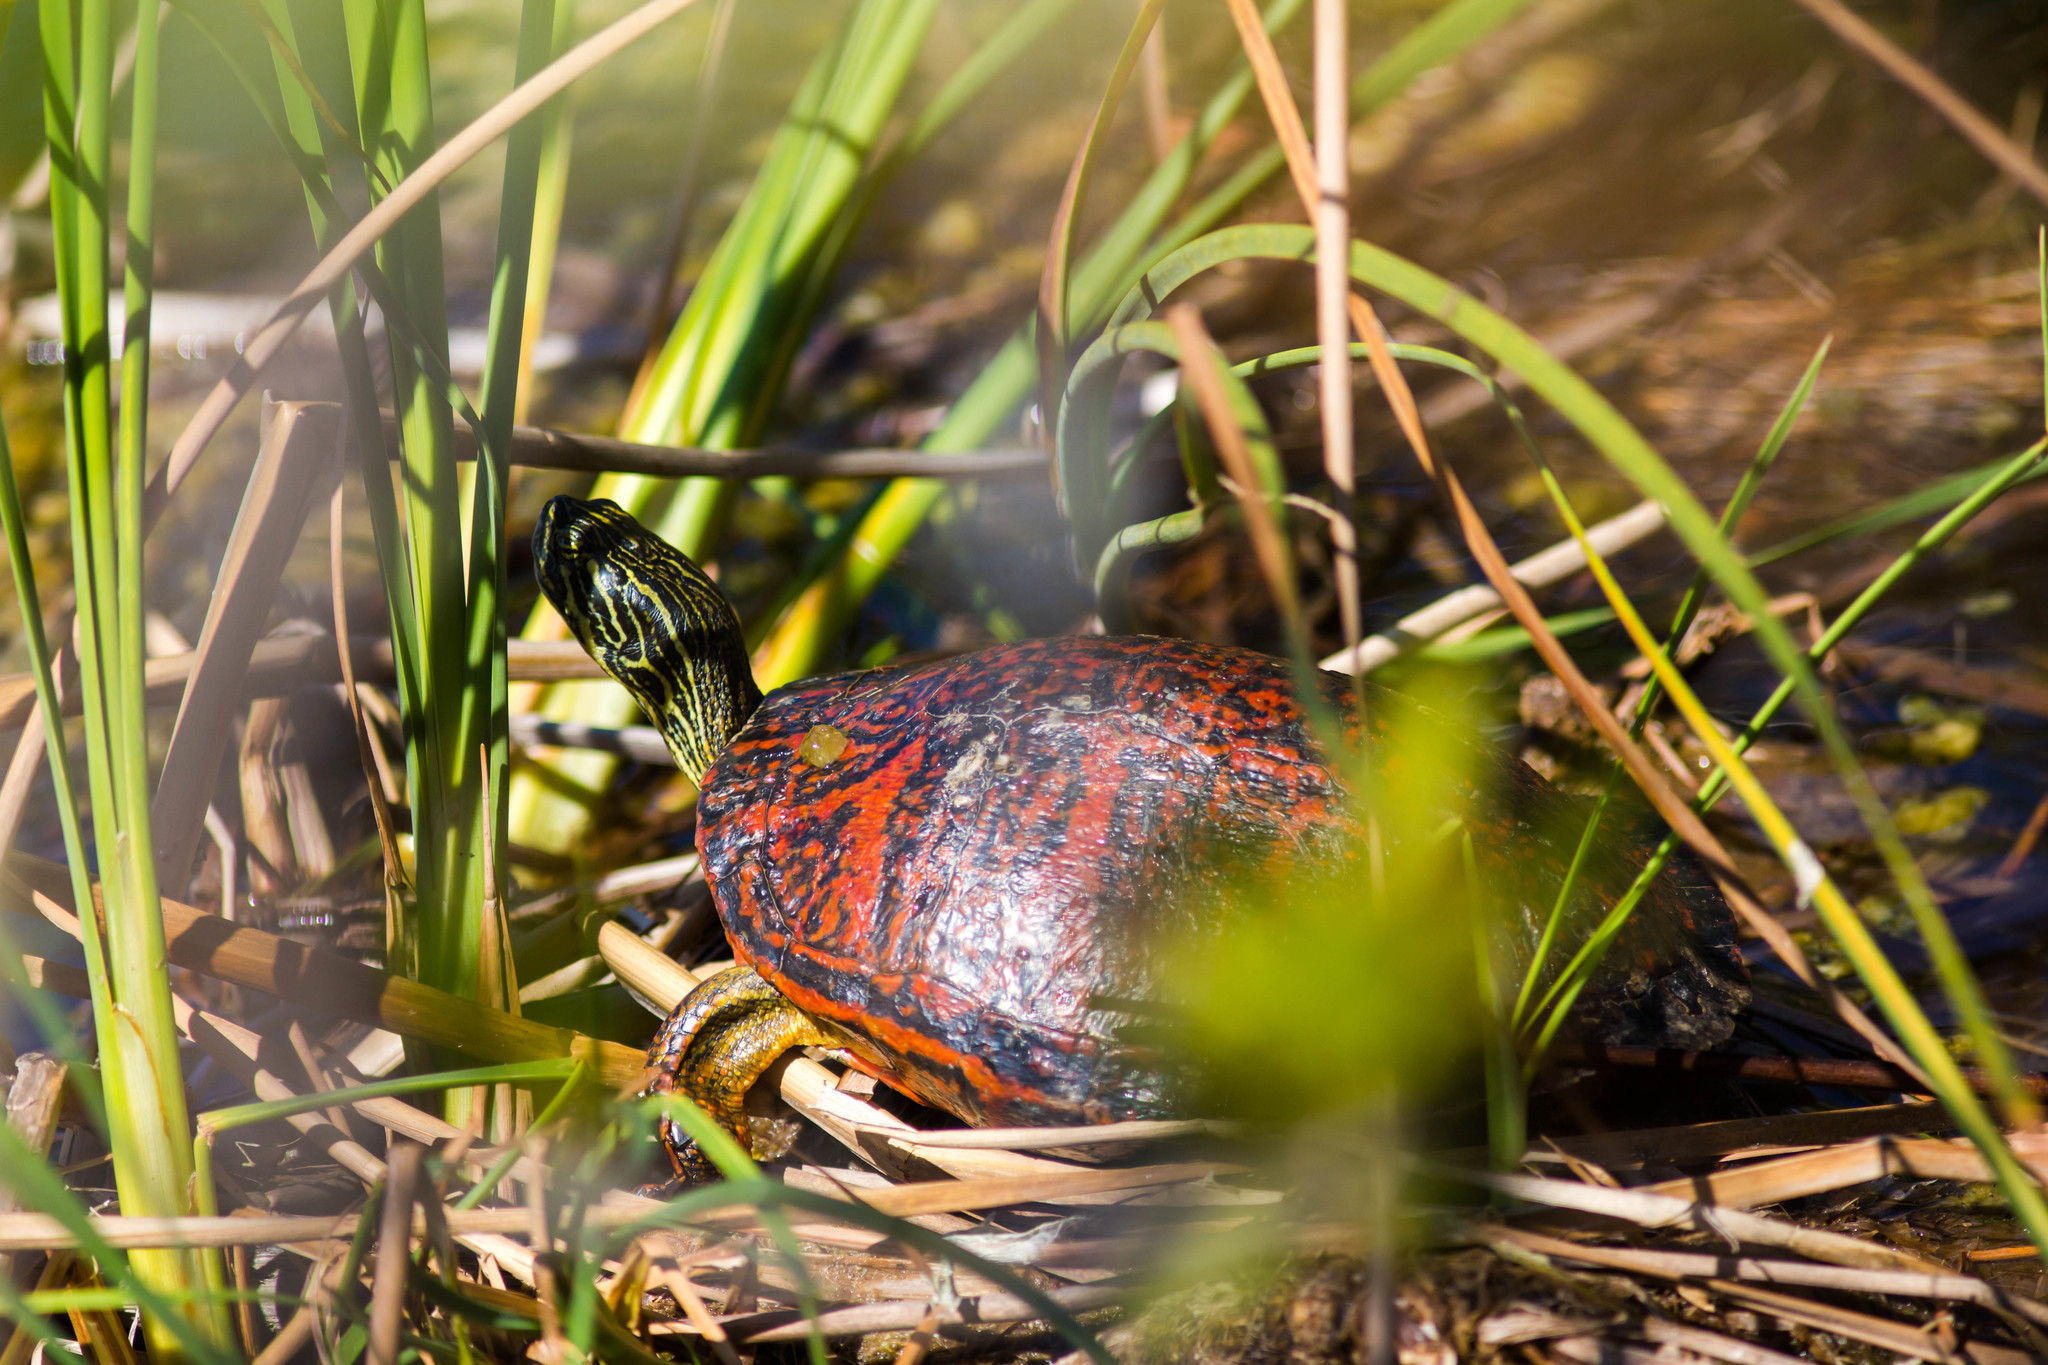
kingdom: Animalia
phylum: Chordata
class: Testudines
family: Emydidae
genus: Pseudemys
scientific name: Pseudemys nelsoni
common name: Florida red-bellied turtle
